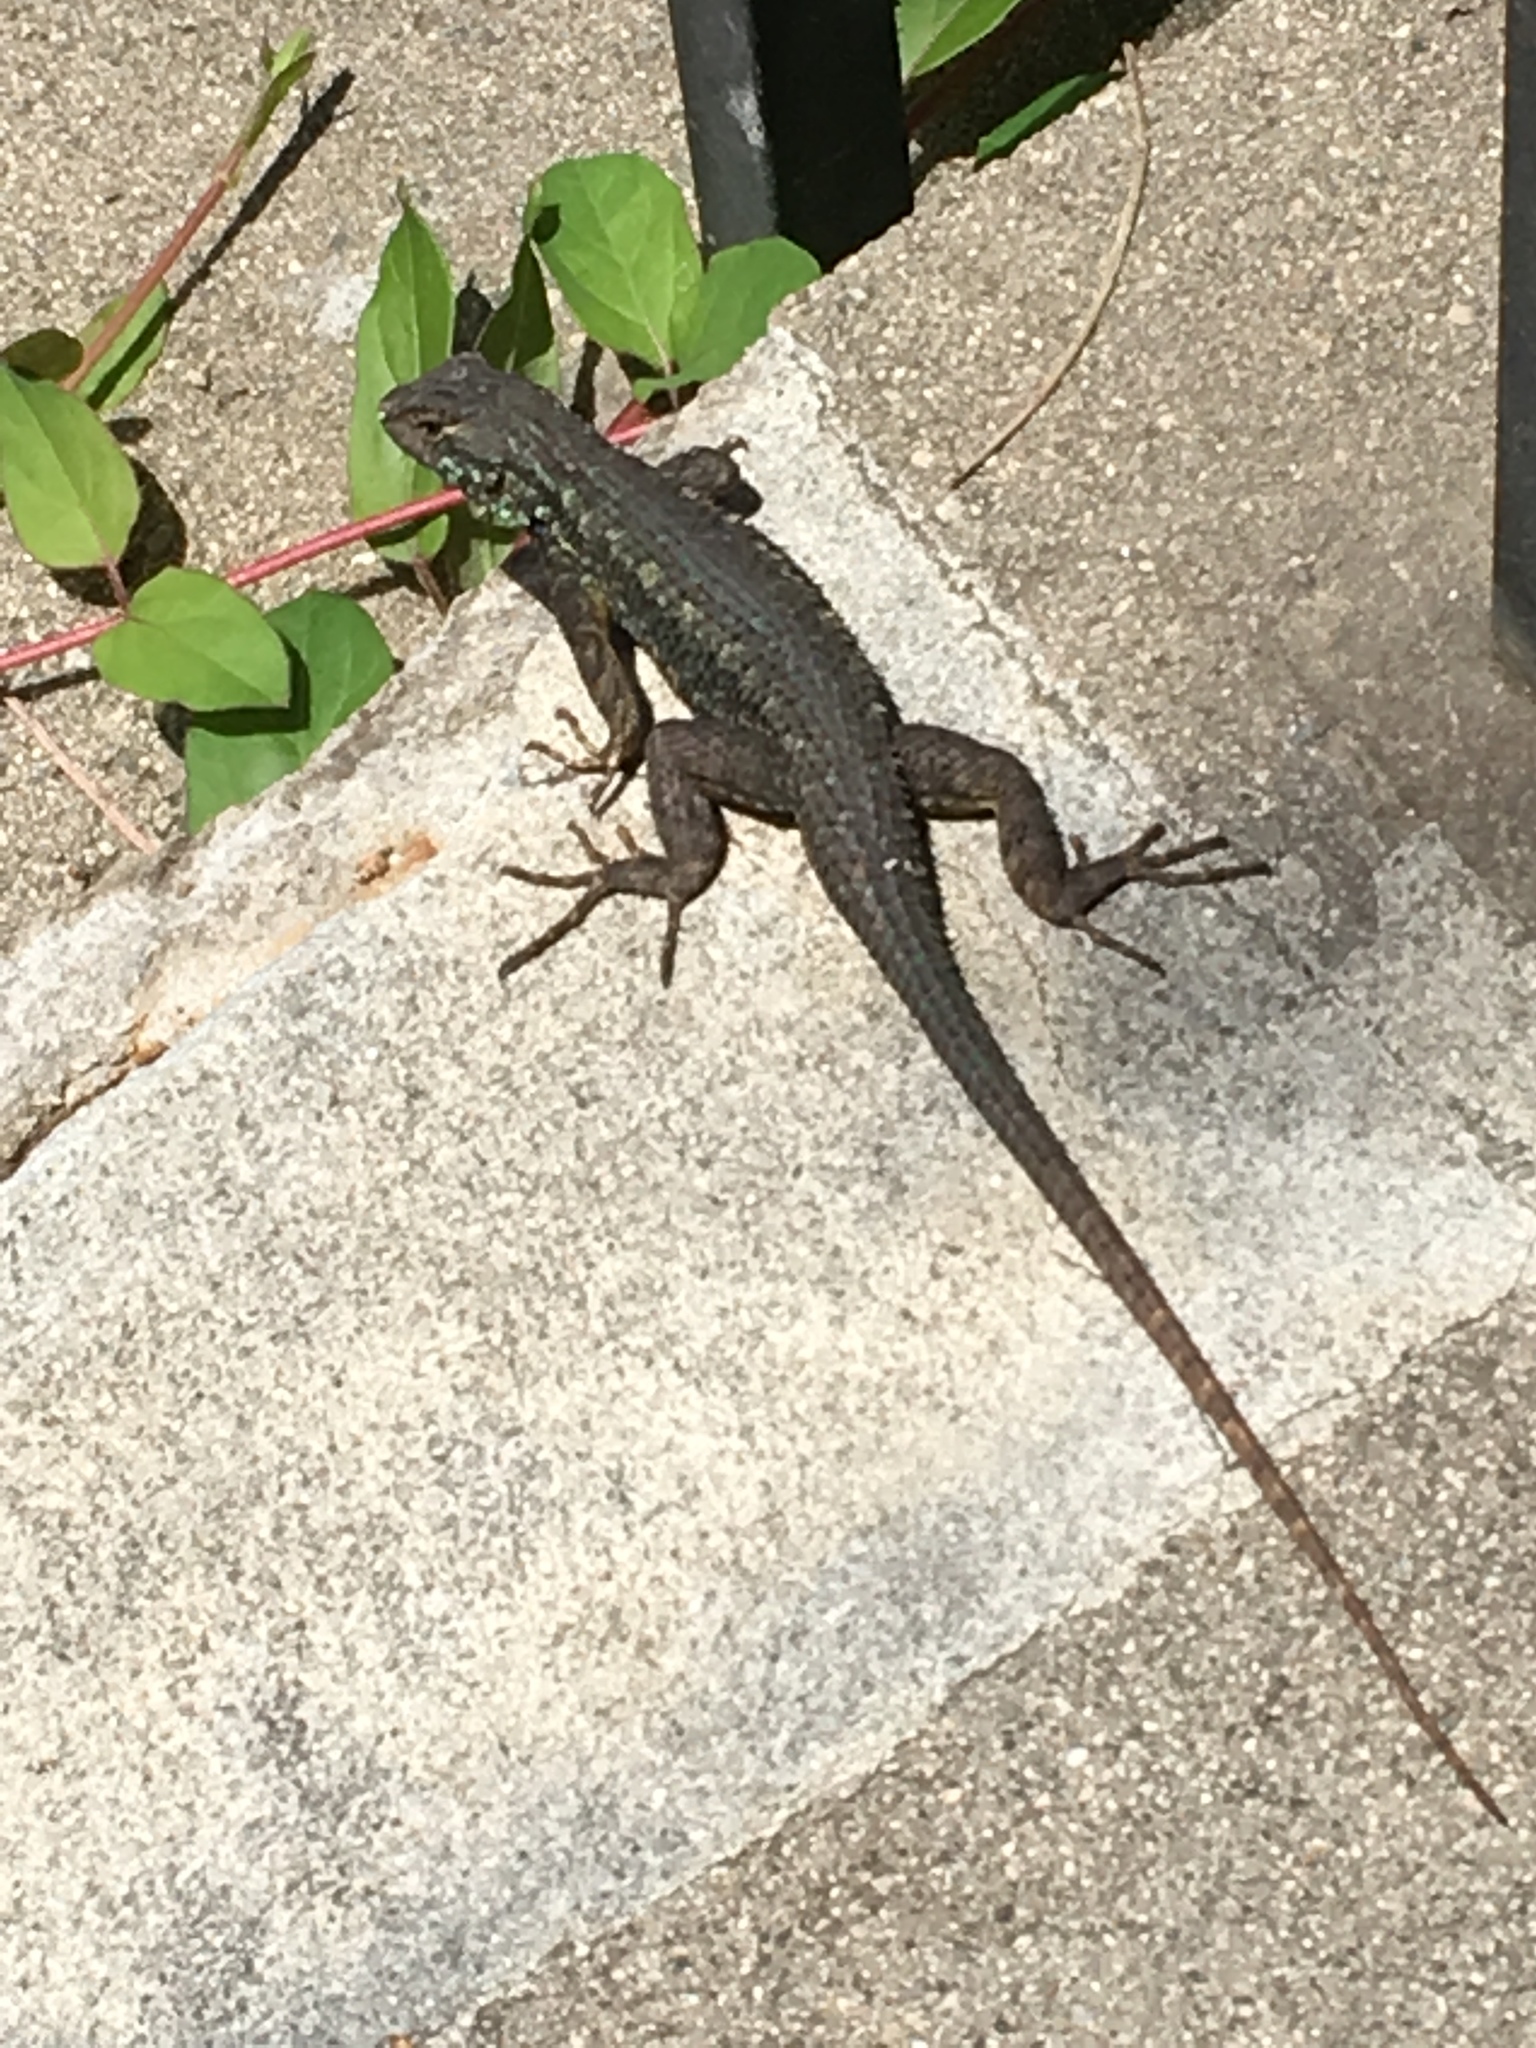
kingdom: Animalia
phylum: Chordata
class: Squamata
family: Phrynosomatidae
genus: Sceloporus
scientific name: Sceloporus occidentalis
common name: Western fence lizard
